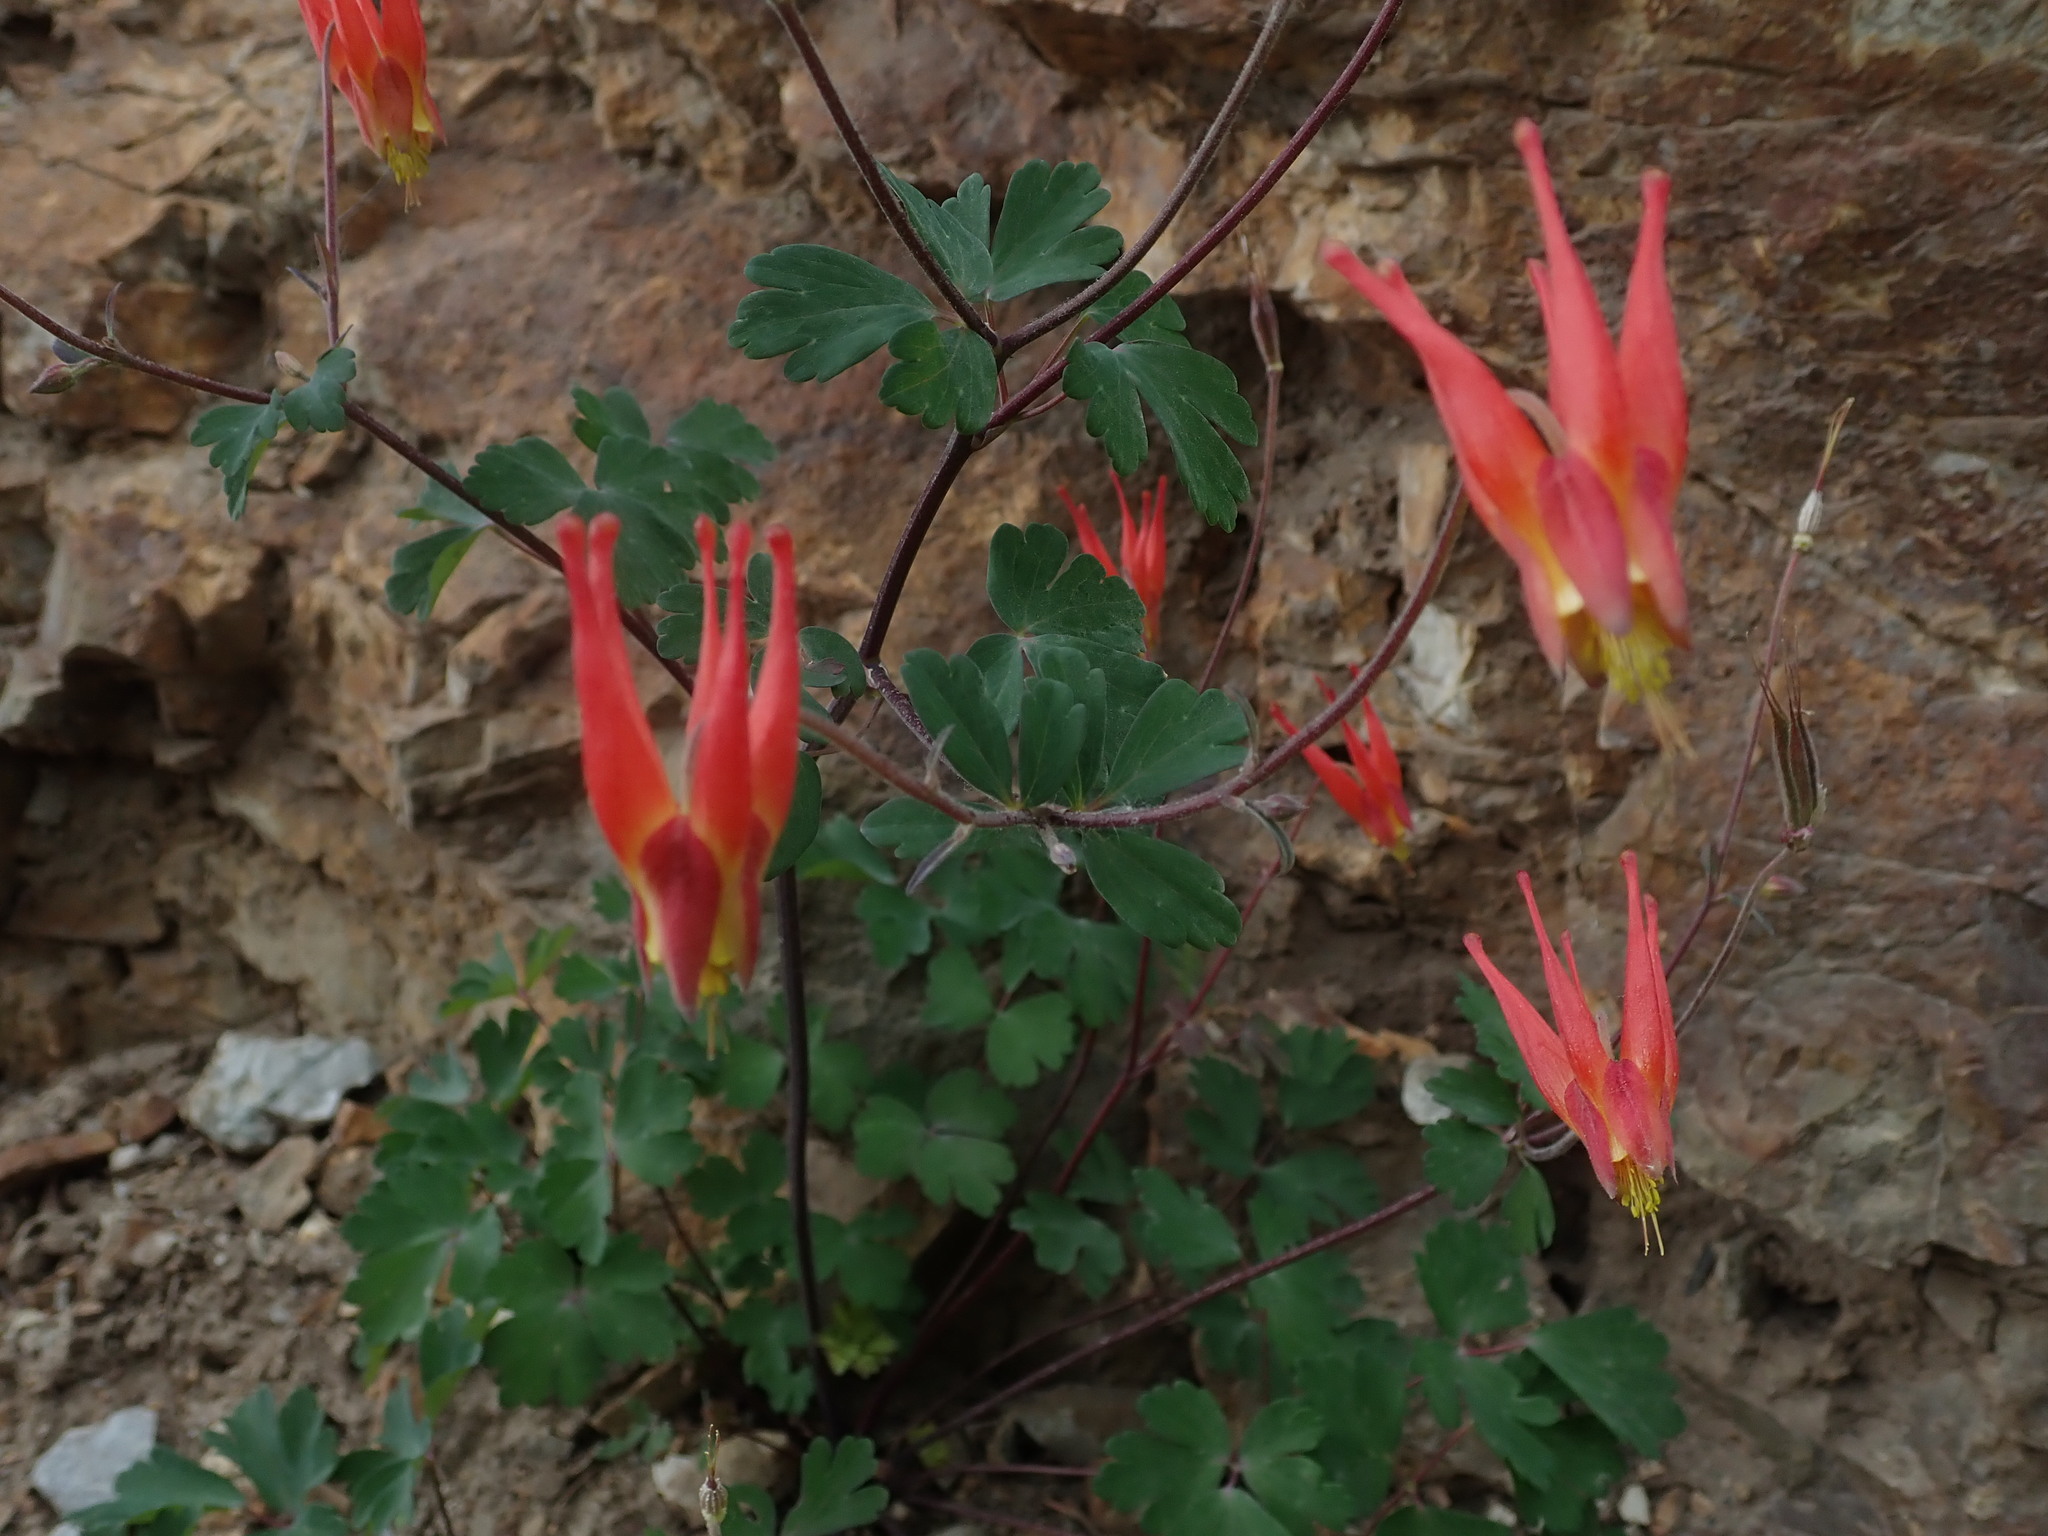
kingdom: Plantae
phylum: Tracheophyta
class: Magnoliopsida
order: Ranunculales
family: Ranunculaceae
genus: Aquilegia
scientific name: Aquilegia elegantula
